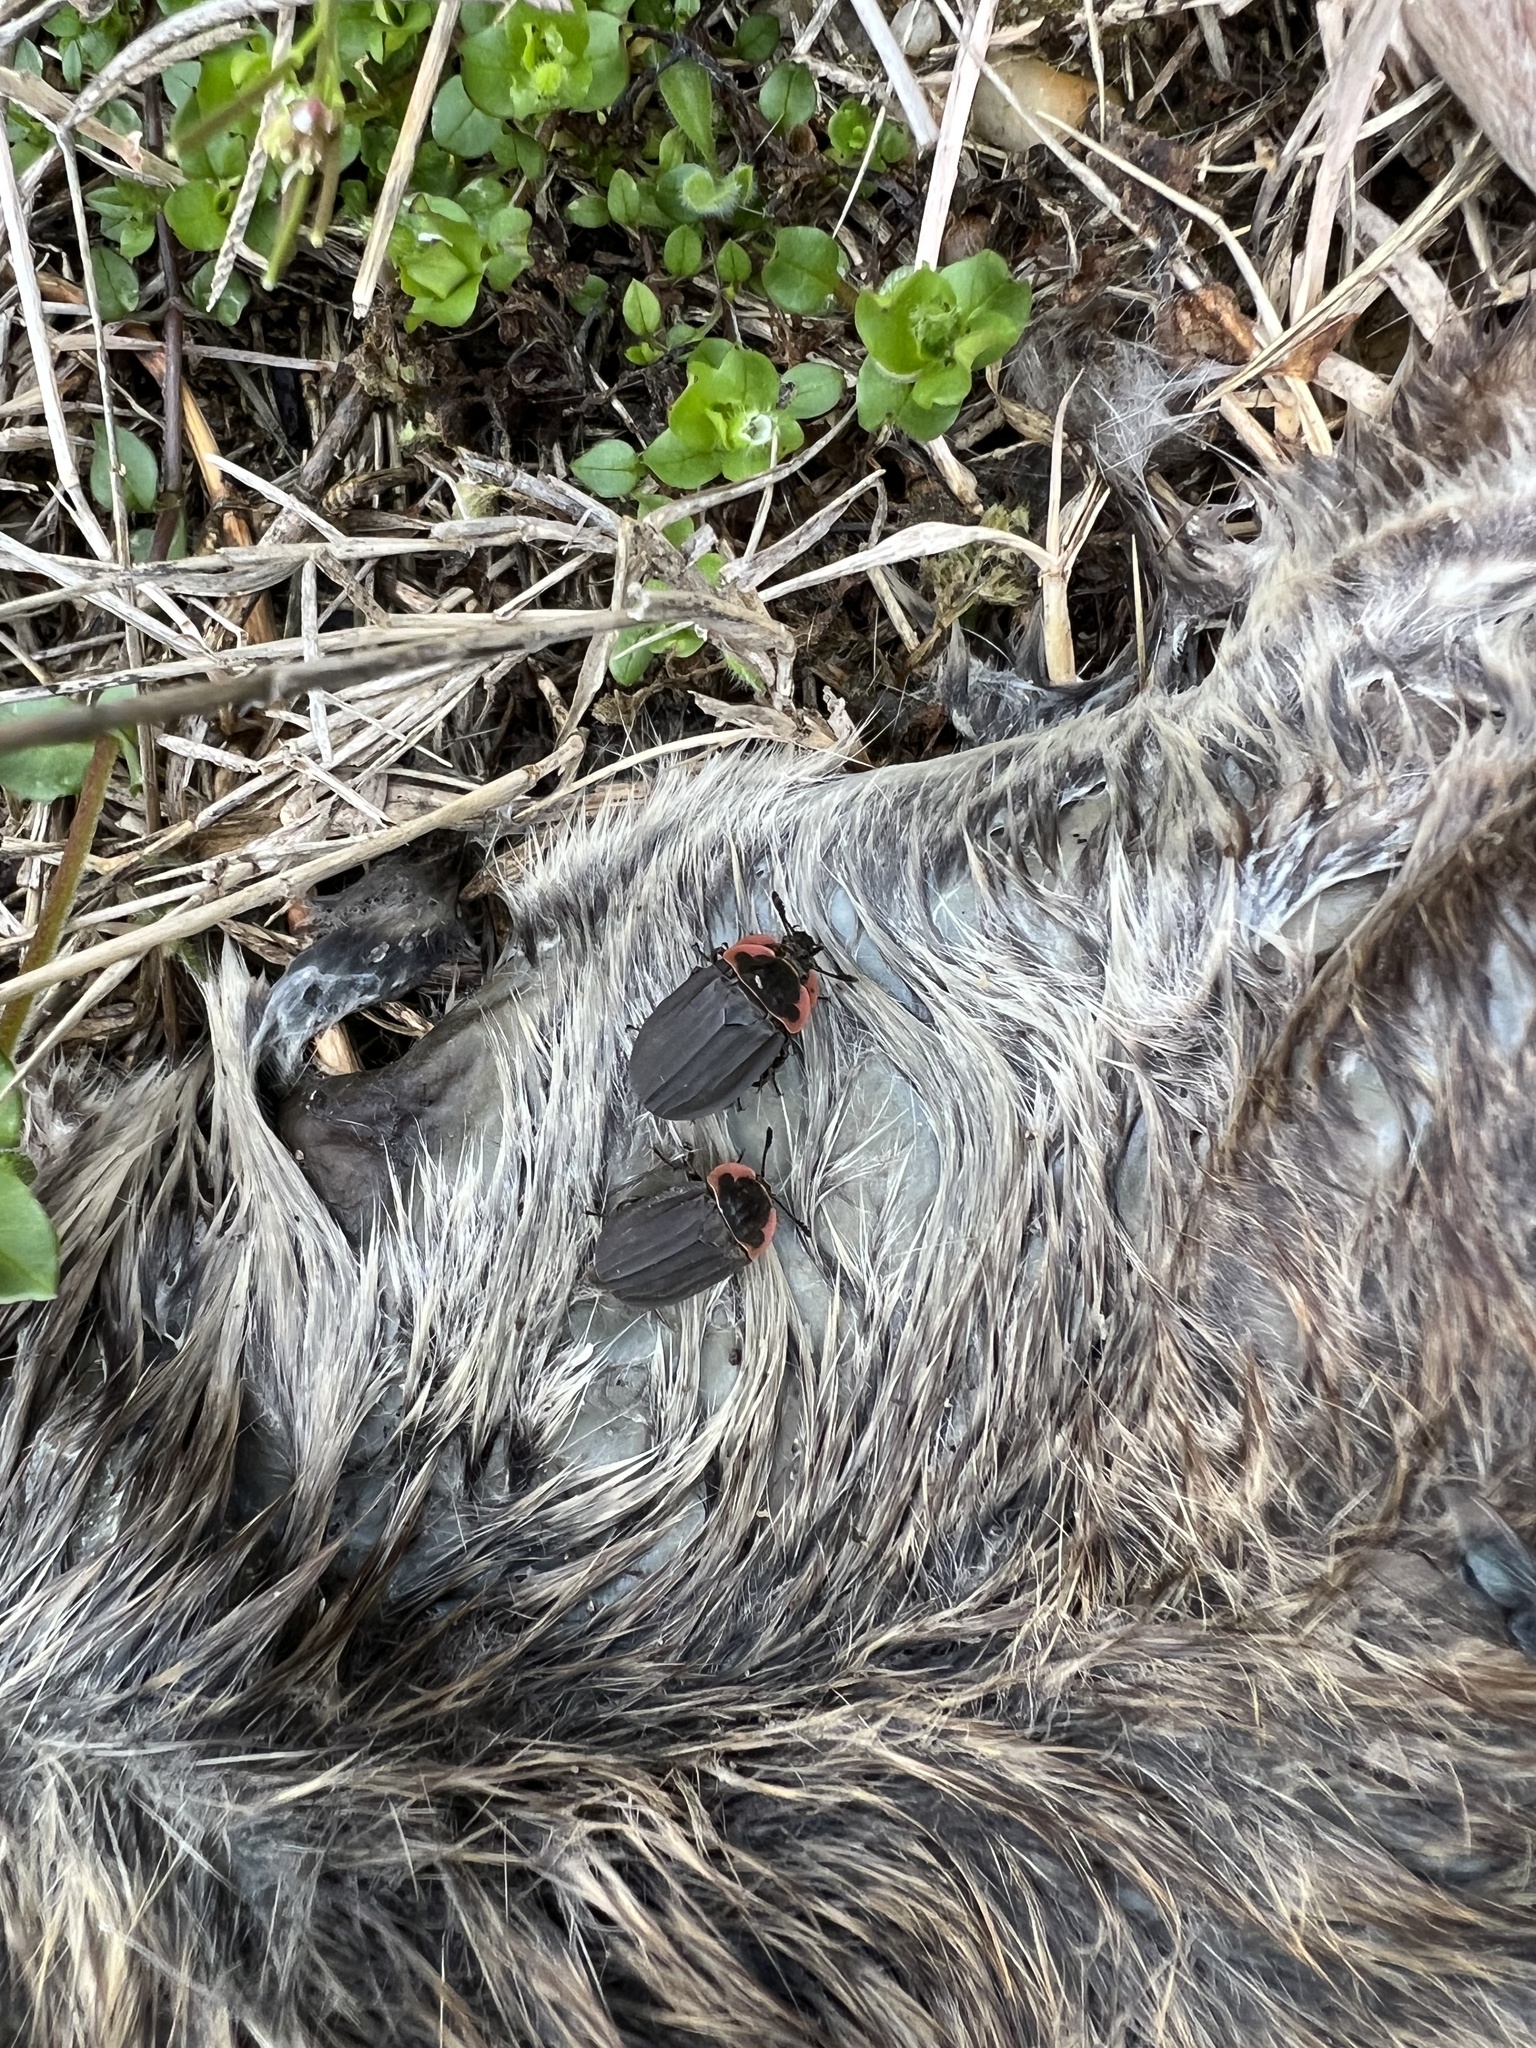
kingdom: Animalia
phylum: Arthropoda
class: Insecta
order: Coleoptera
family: Staphylinidae
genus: Oiceoptoma
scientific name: Oiceoptoma noveboracense
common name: Margined carrion beetle
